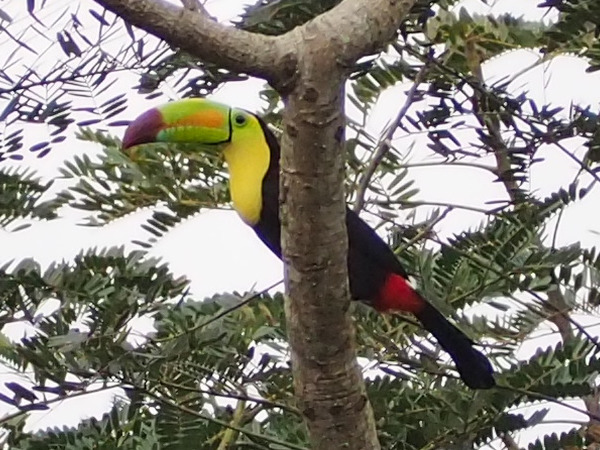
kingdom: Animalia
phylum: Chordata
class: Aves
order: Piciformes
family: Ramphastidae
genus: Ramphastos
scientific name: Ramphastos sulfuratus
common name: Keel-billed toucan
